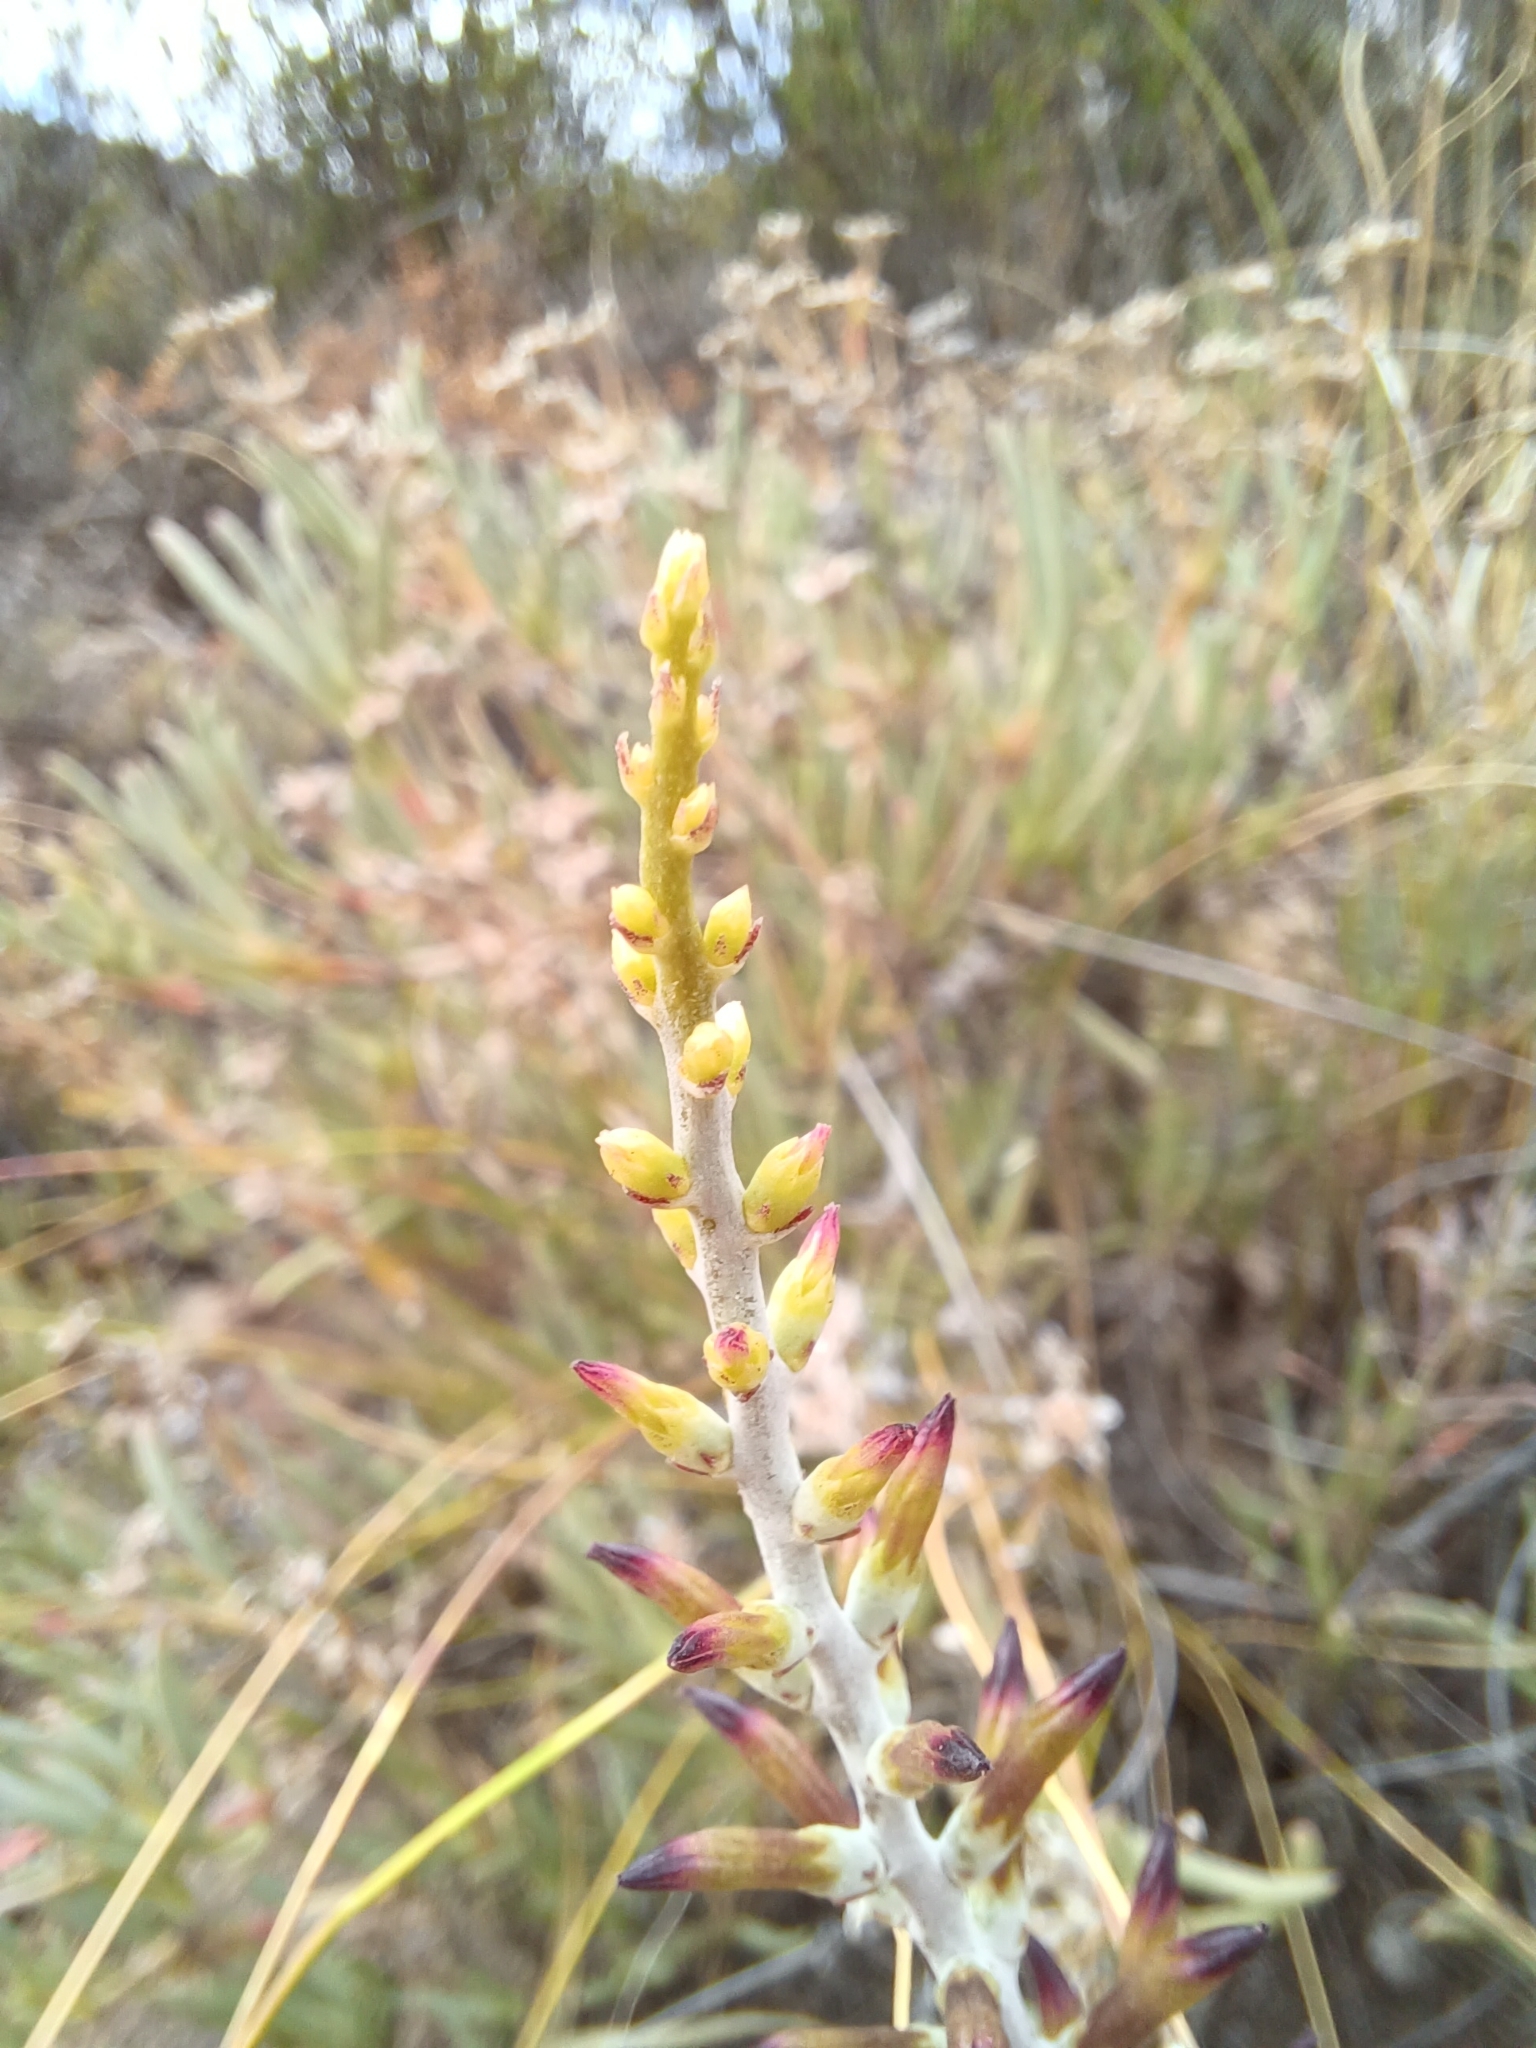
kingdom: Plantae
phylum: Tracheophyta
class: Magnoliopsida
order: Saxifragales
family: Crassulaceae
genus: Adromischus
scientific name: Adromischus maculatus
